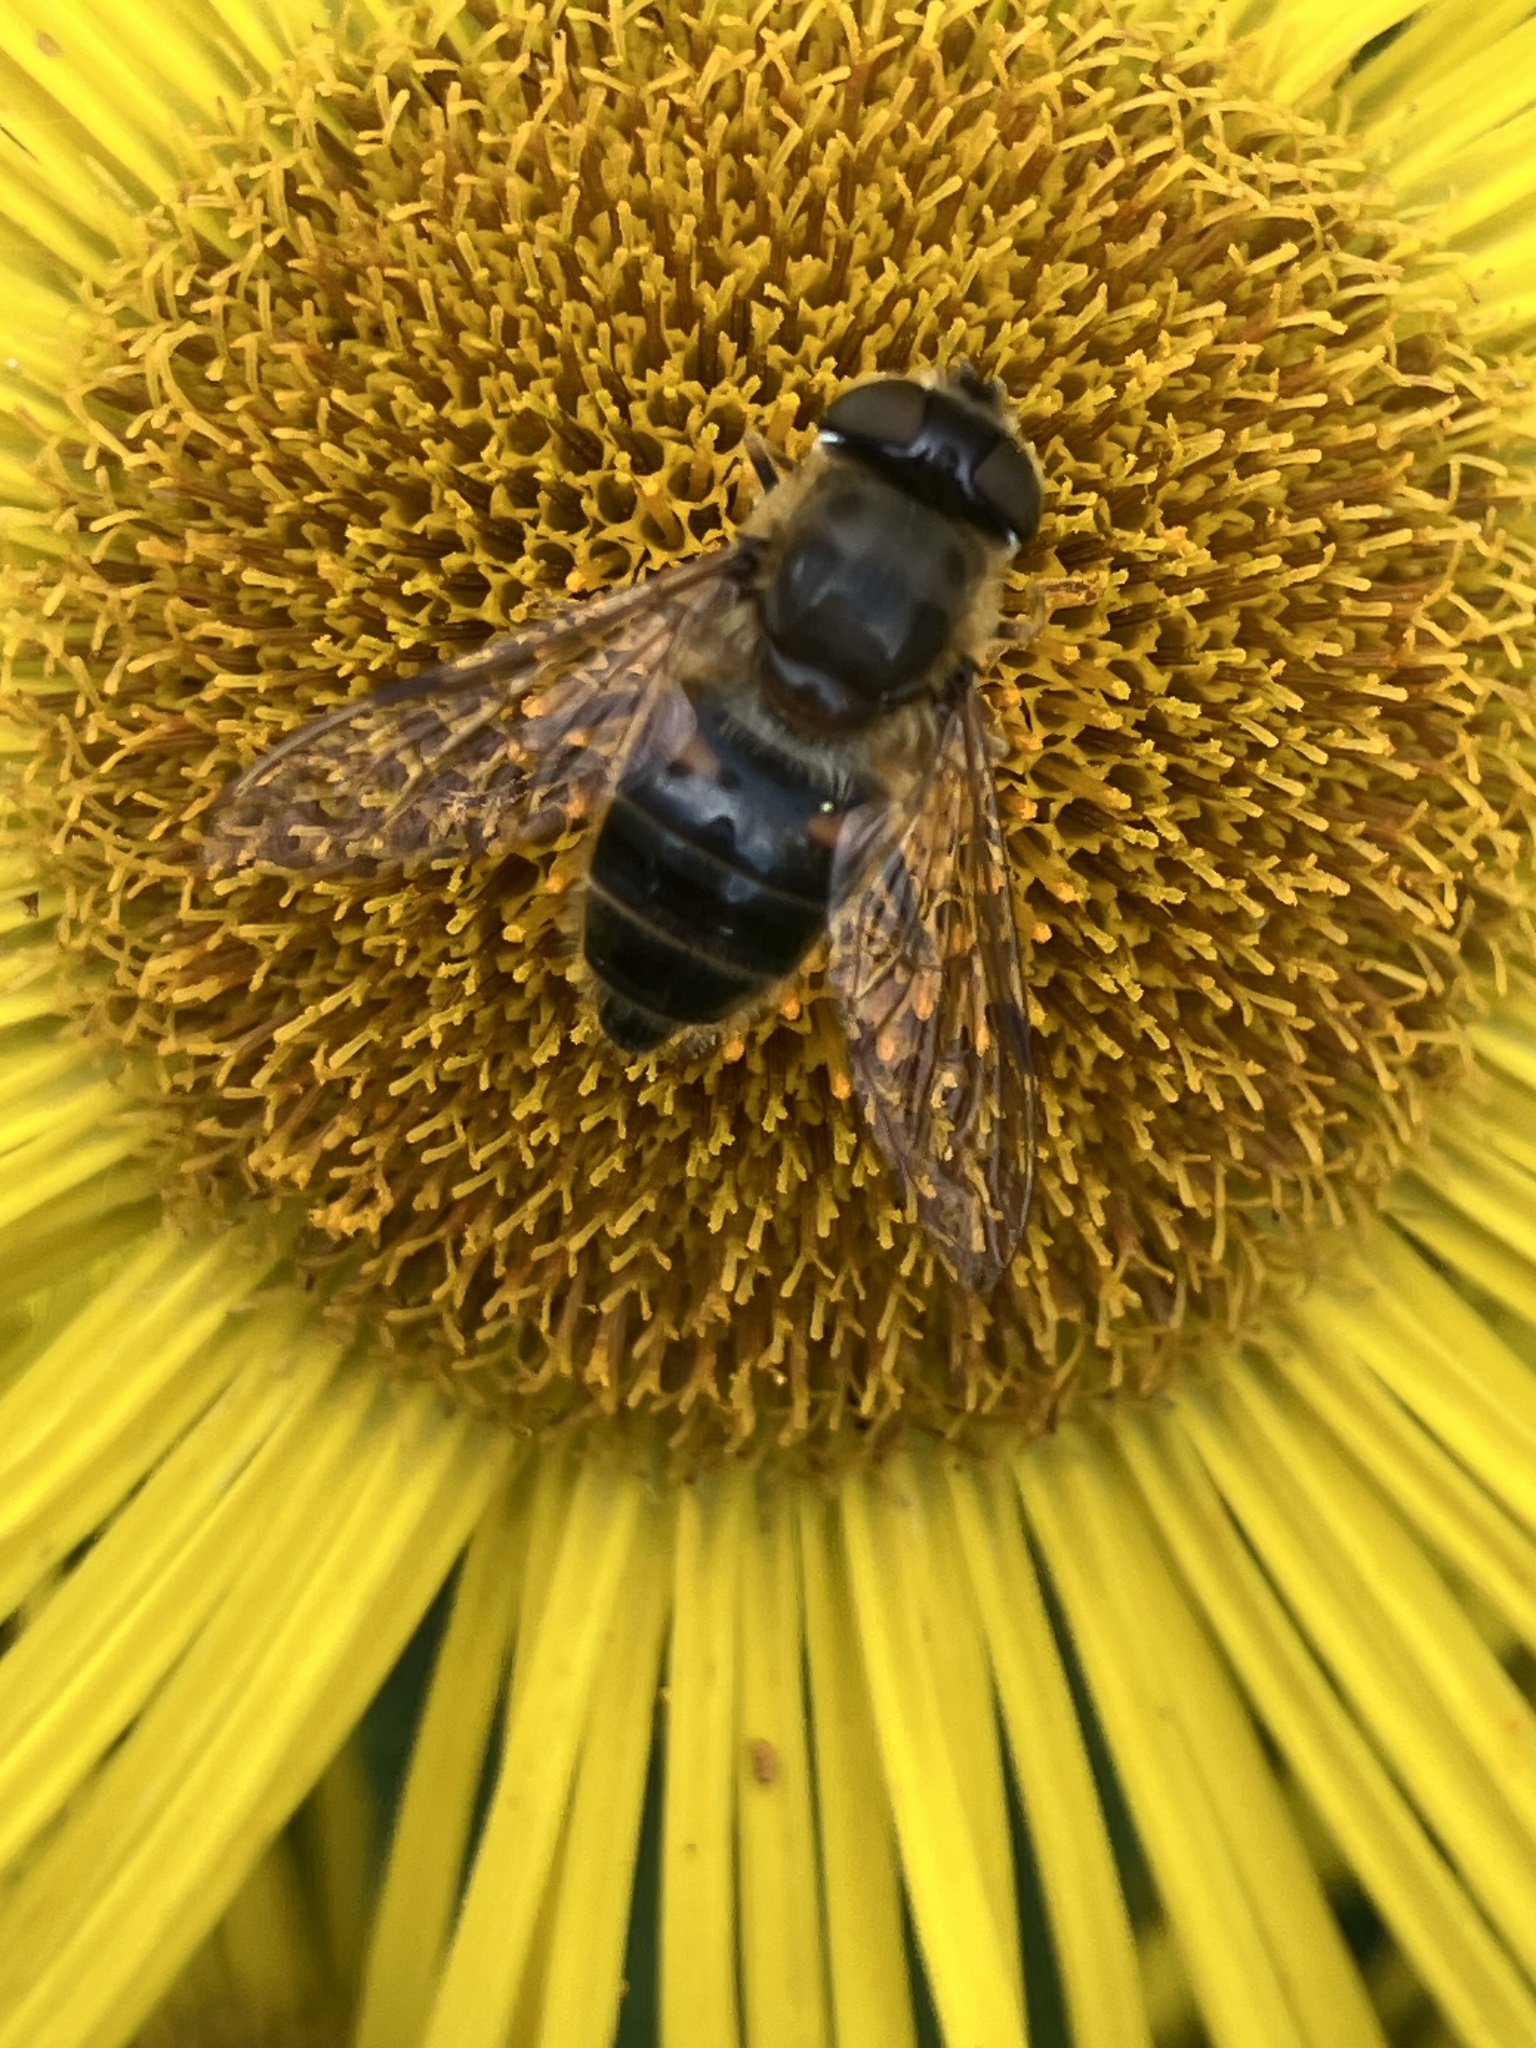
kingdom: Animalia
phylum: Arthropoda
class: Insecta
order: Diptera
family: Syrphidae
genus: Eristalis
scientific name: Eristalis
